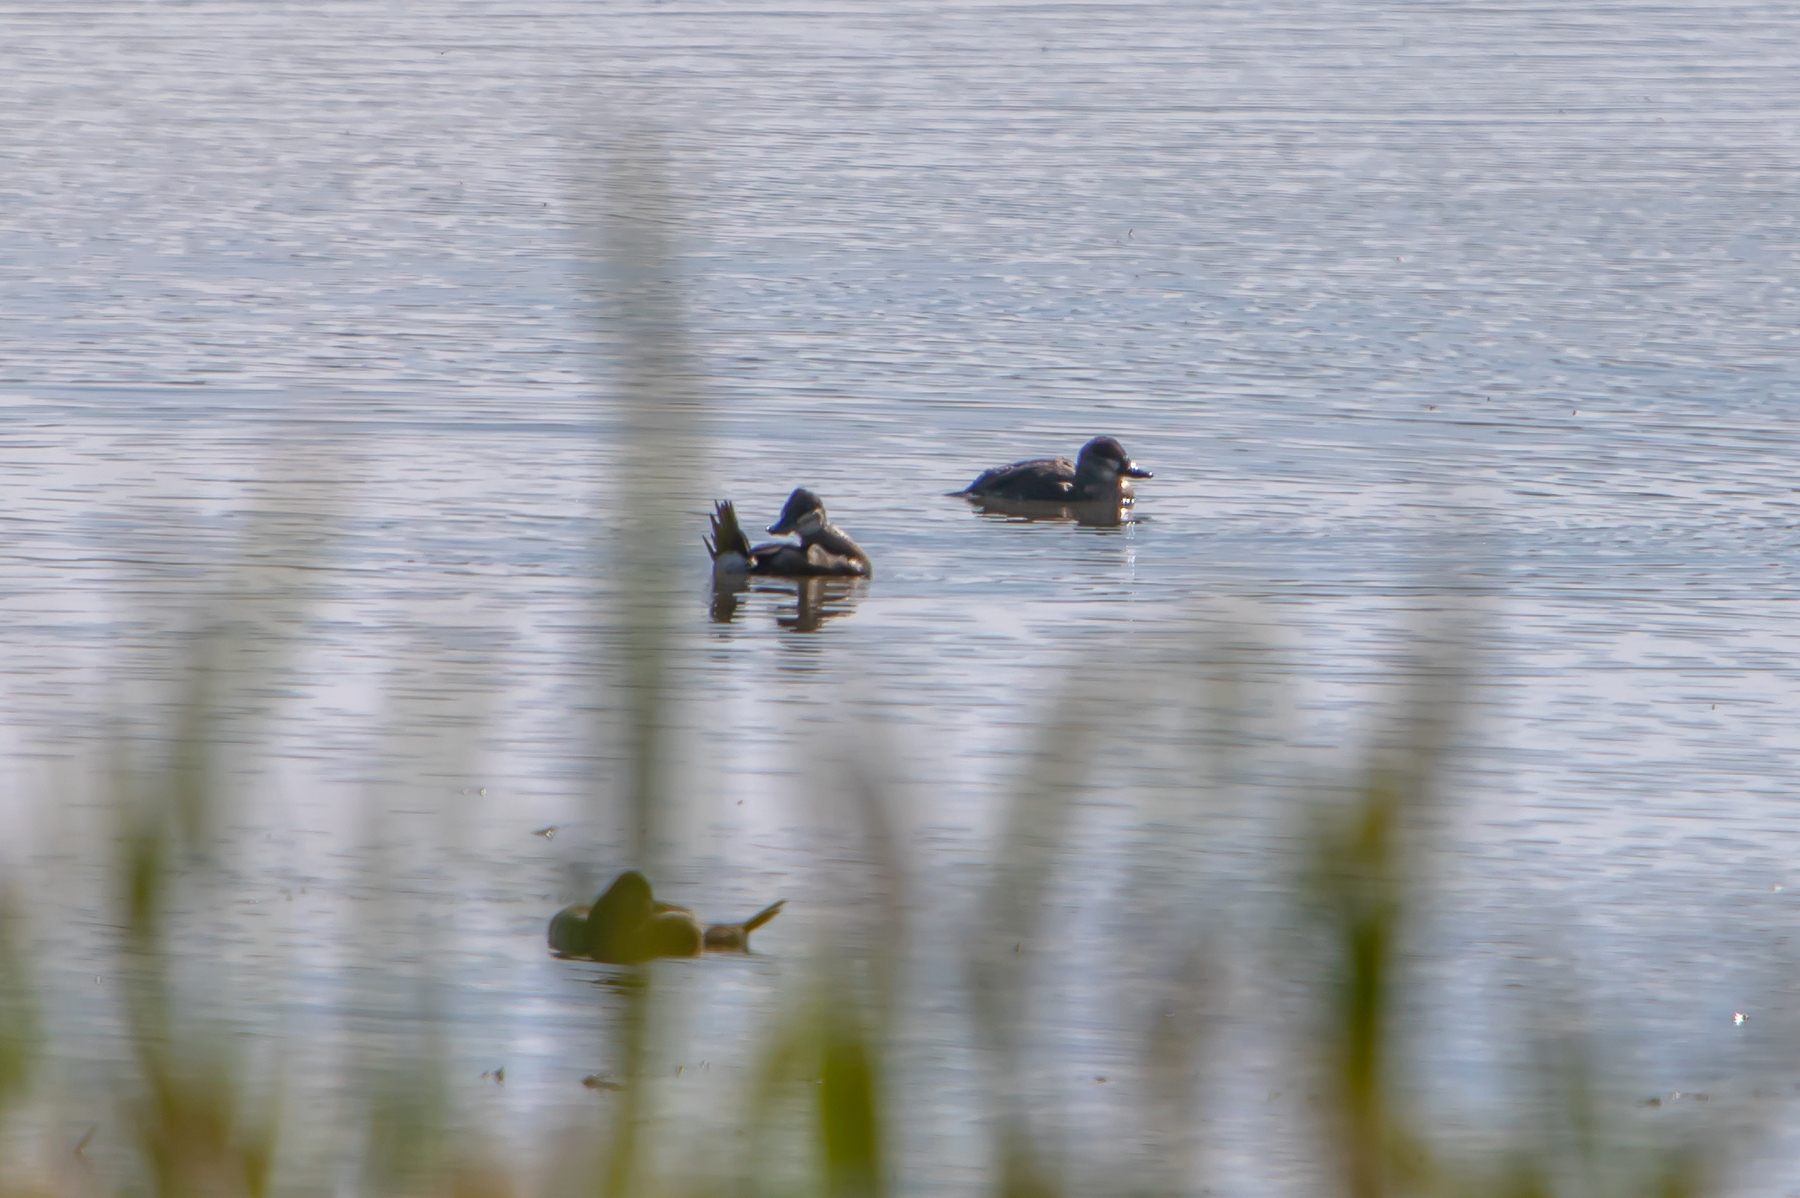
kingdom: Animalia
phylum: Chordata
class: Aves
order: Anseriformes
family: Anatidae
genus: Oxyura
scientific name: Oxyura jamaicensis
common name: Ruddy duck
